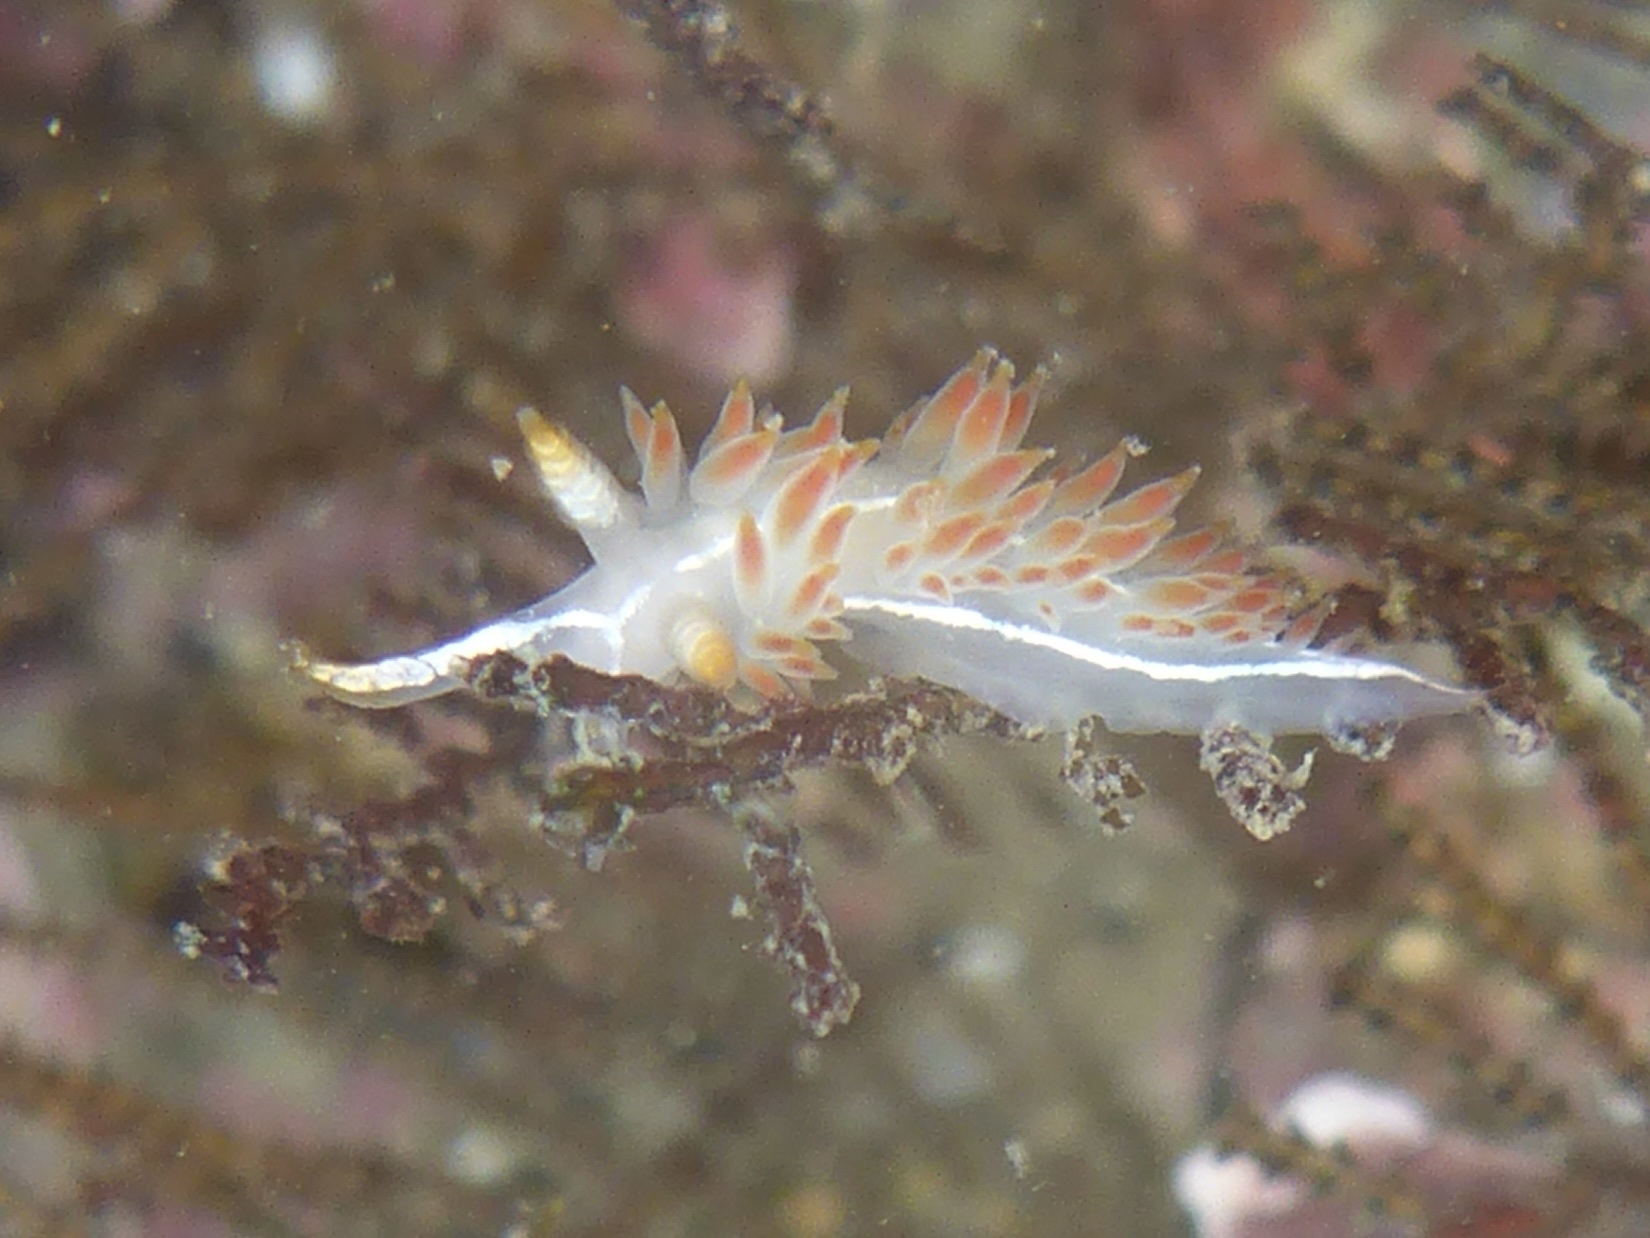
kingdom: Animalia
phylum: Mollusca
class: Gastropoda
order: Nudibranchia
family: Coryphellidae
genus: Coryphella
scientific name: Coryphella trilineata
